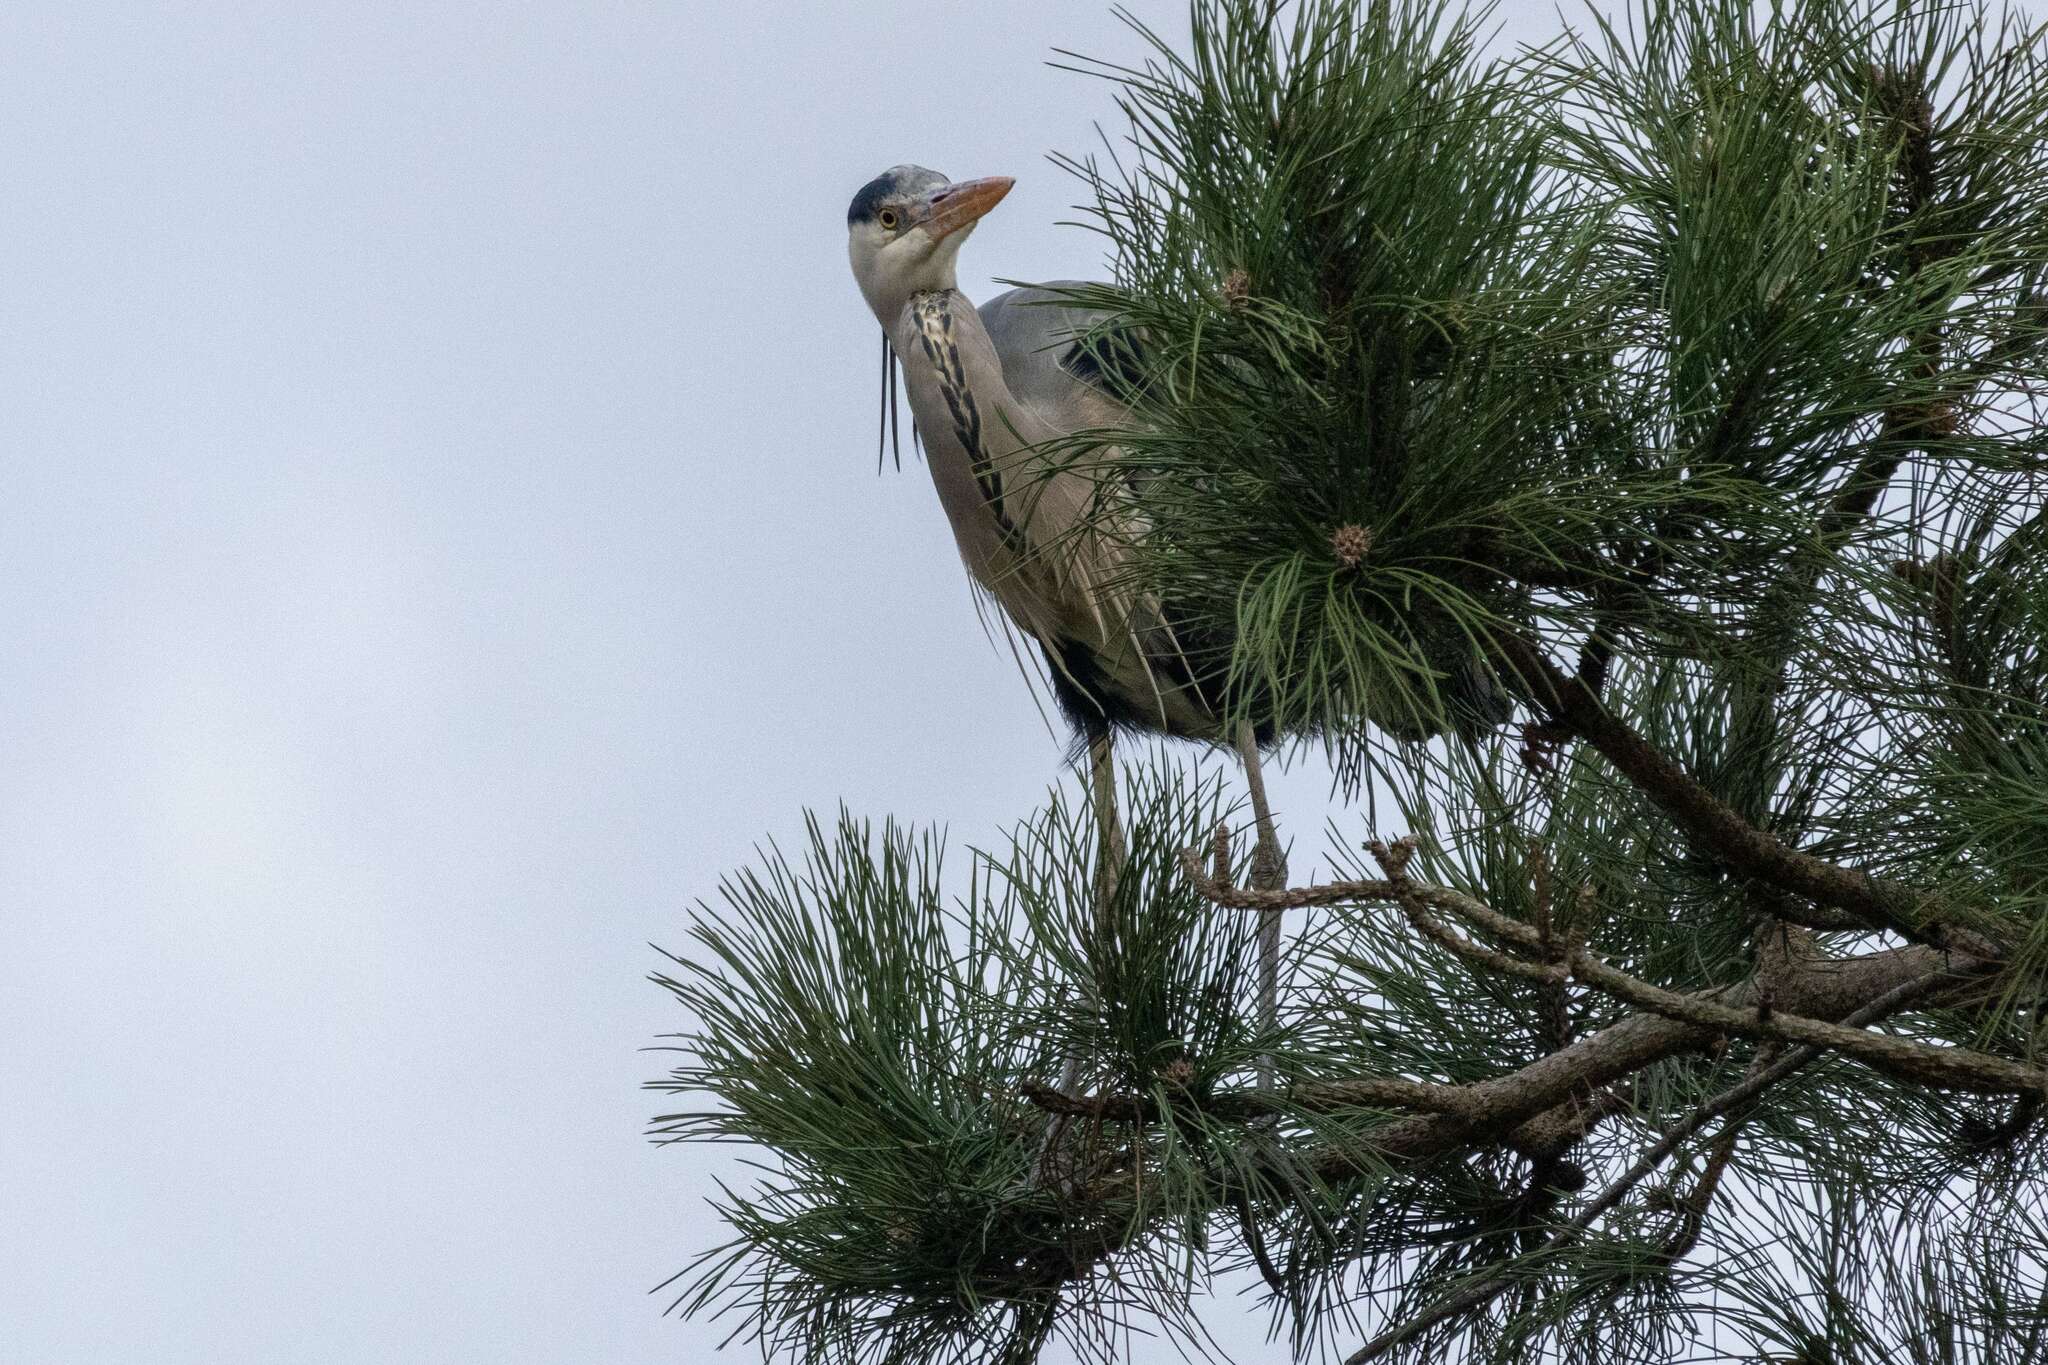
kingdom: Animalia
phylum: Chordata
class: Aves
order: Pelecaniformes
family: Ardeidae
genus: Ardea
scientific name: Ardea cinerea
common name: Grey heron
